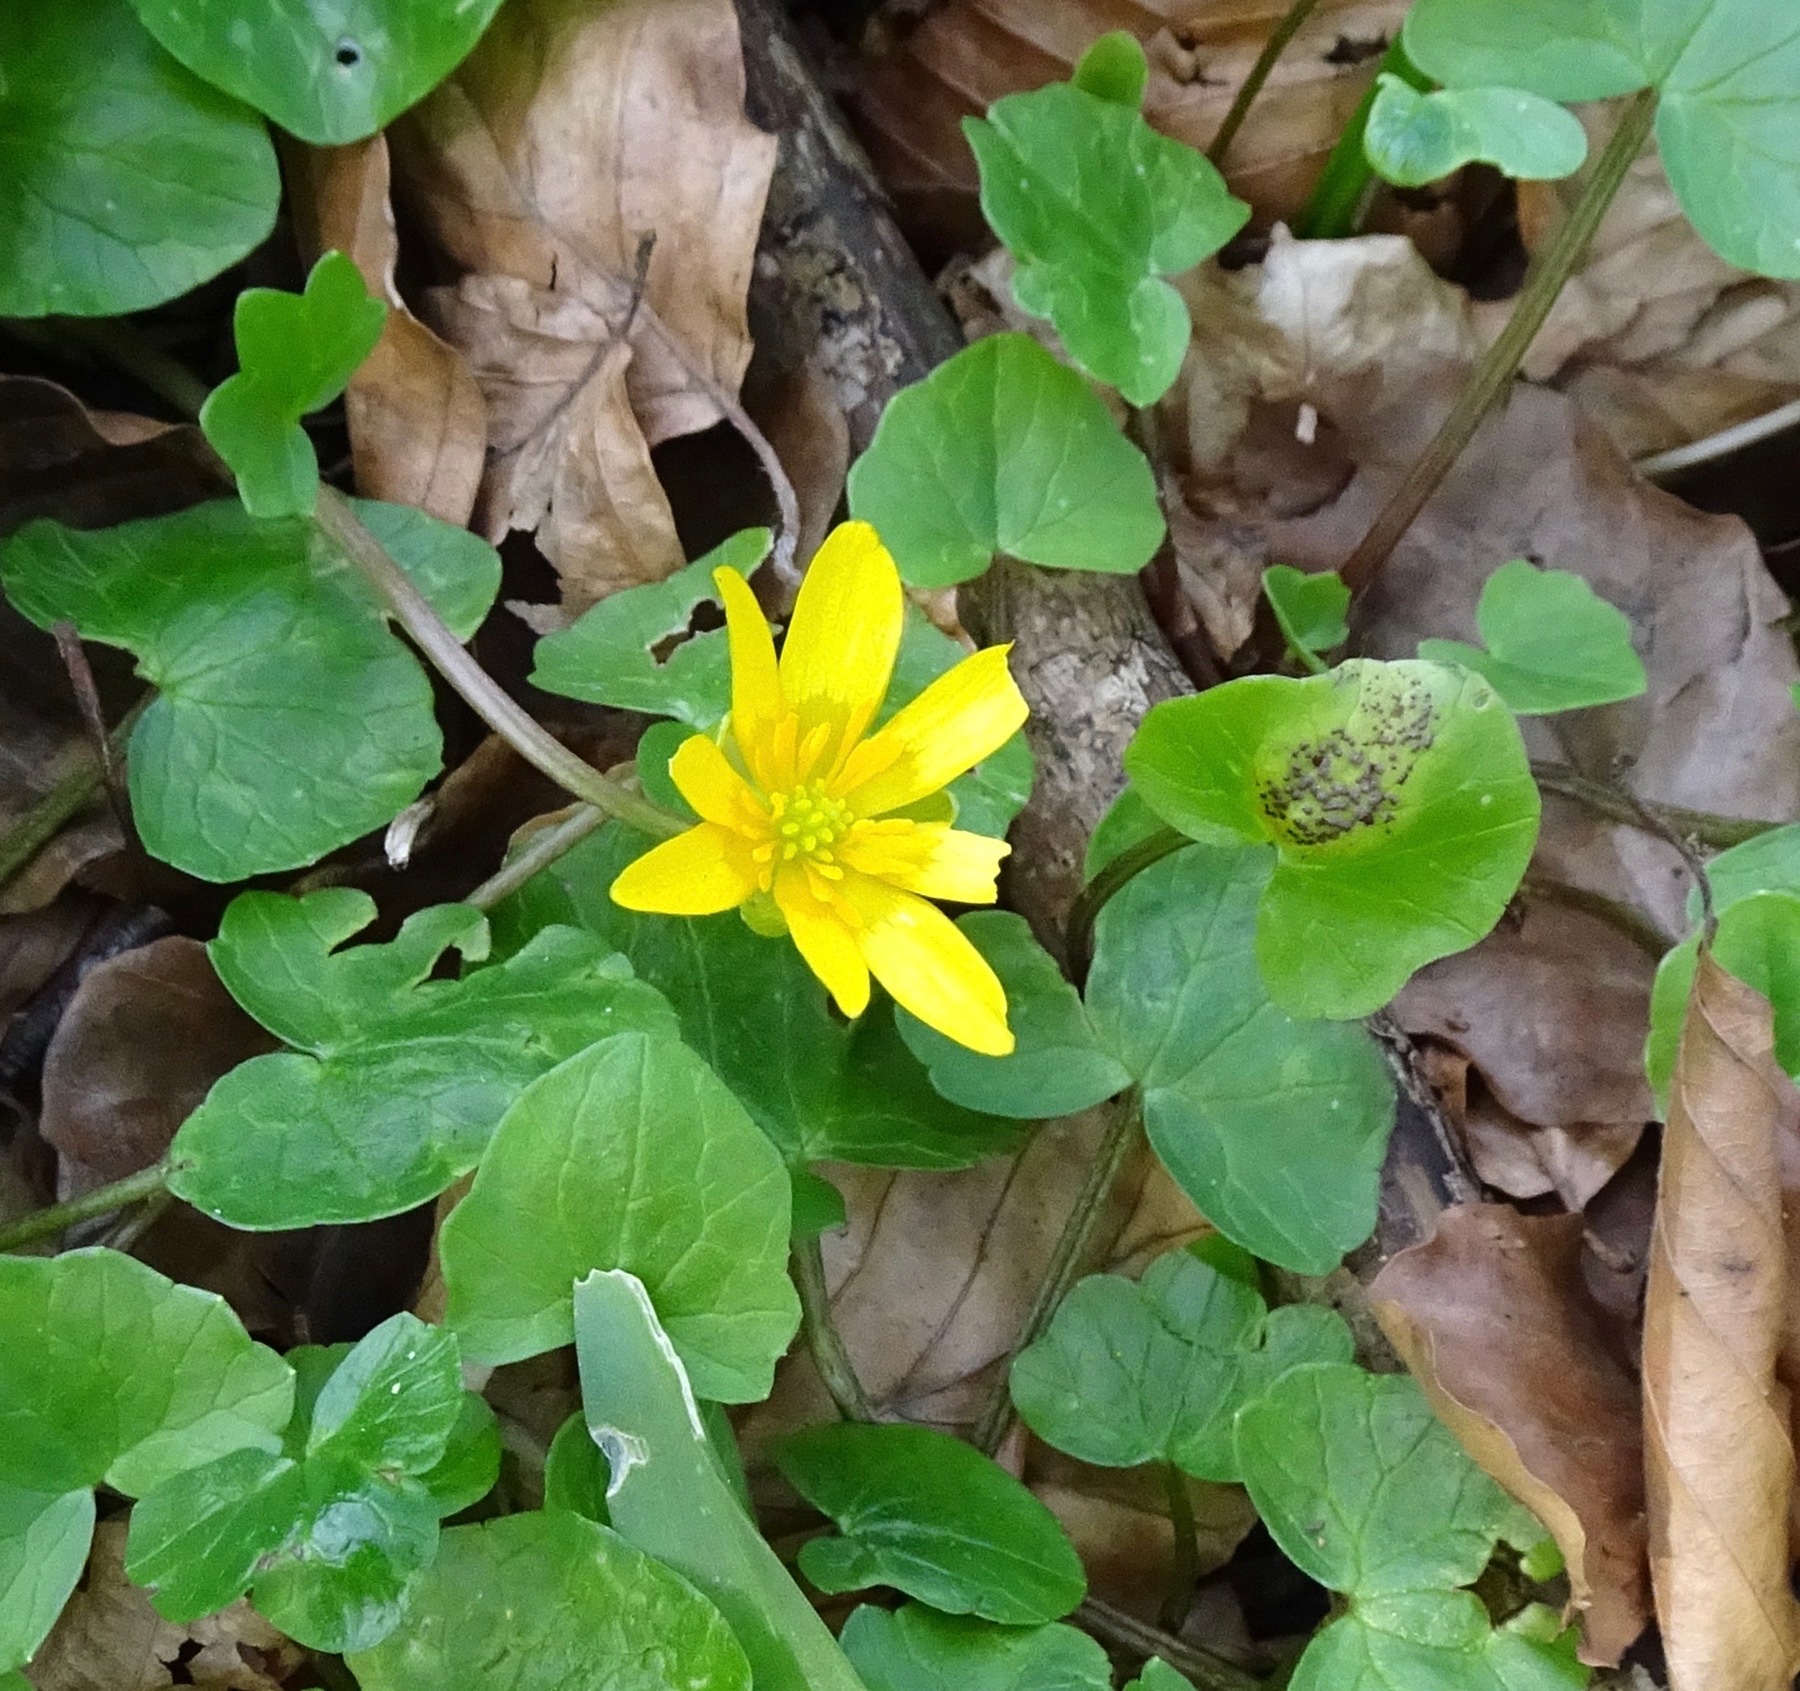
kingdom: Plantae
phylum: Tracheophyta
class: Magnoliopsida
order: Ranunculales
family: Ranunculaceae
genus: Ficaria
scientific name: Ficaria verna
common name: Lesser celandine
